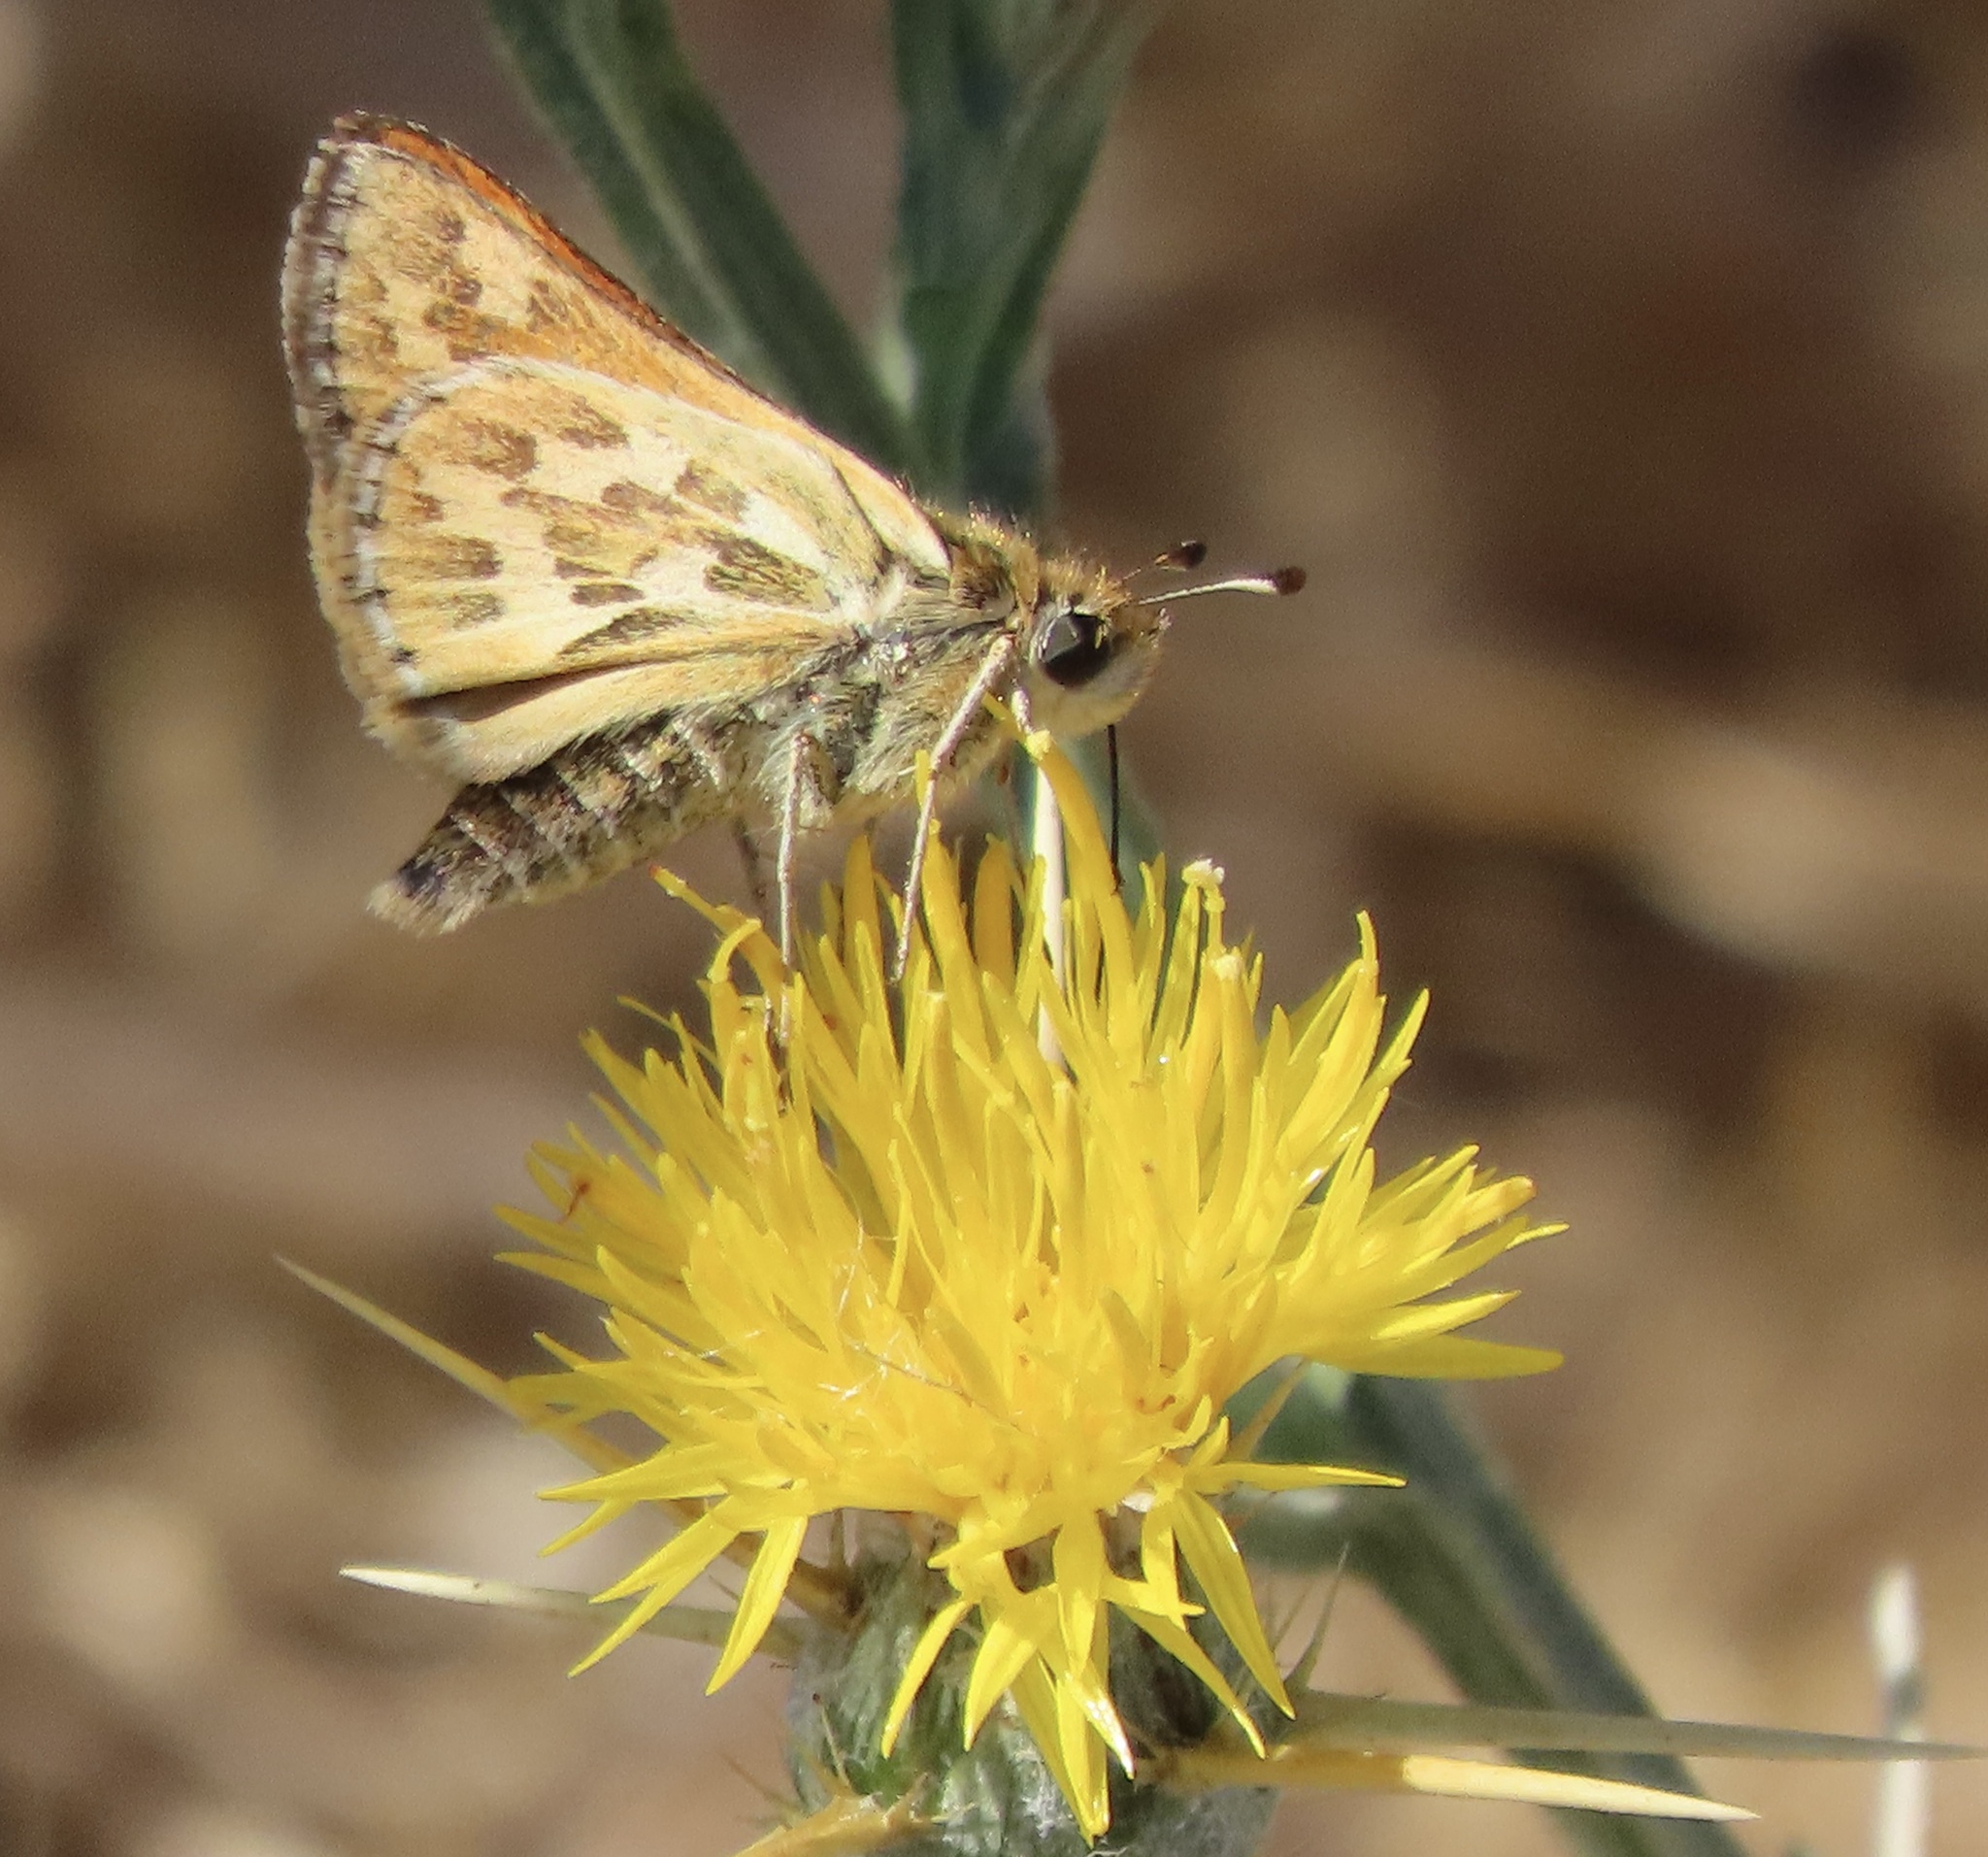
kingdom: Animalia
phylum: Arthropoda
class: Insecta
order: Lepidoptera
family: Hesperiidae
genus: Polites
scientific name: Polites sabuleti
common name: Sandhill skipper
